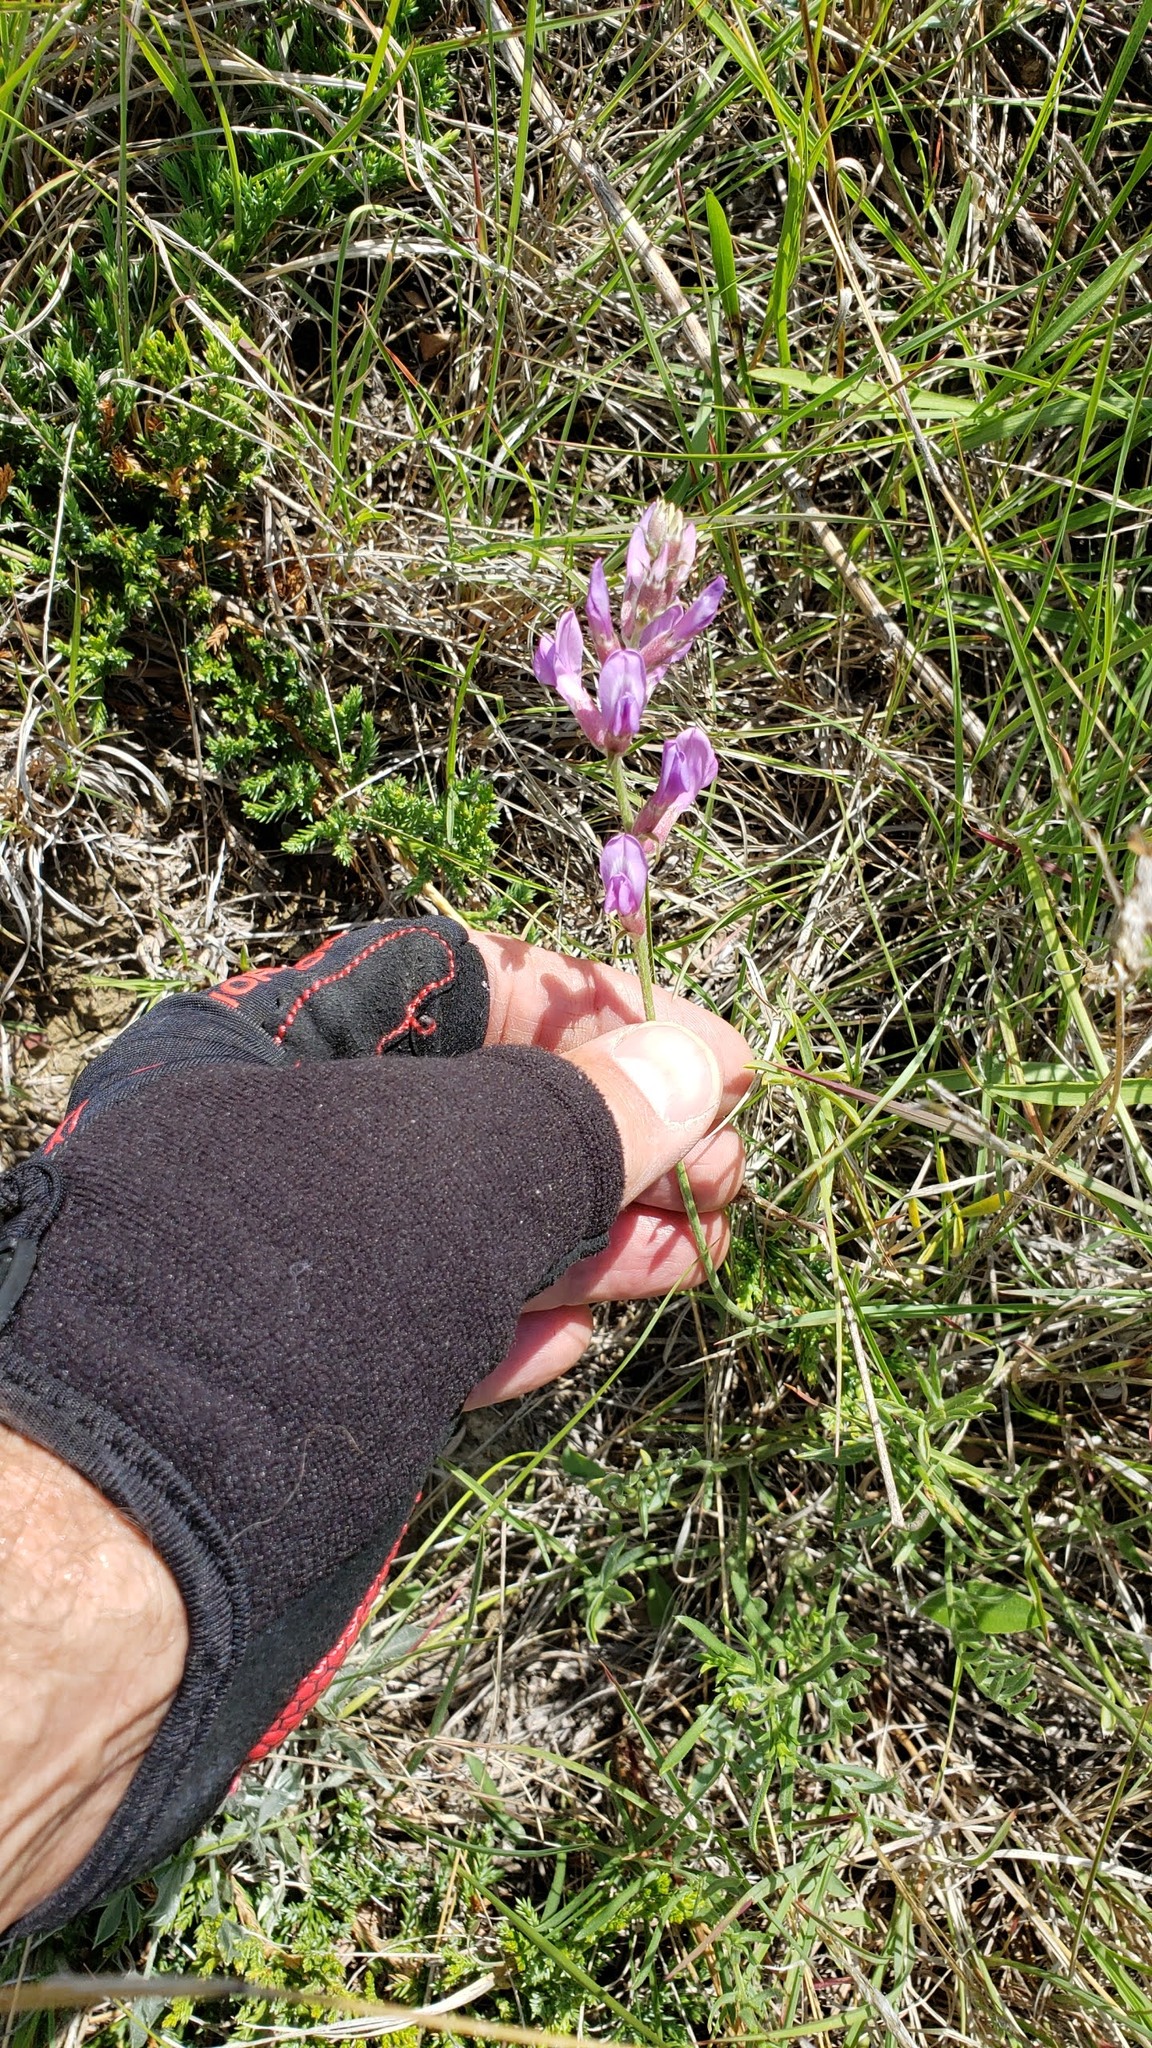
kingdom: Plantae
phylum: Tracheophyta
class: Magnoliopsida
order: Fabales
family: Fabaceae
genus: Oxytropis
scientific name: Oxytropis lambertii
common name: Purple locoweed
